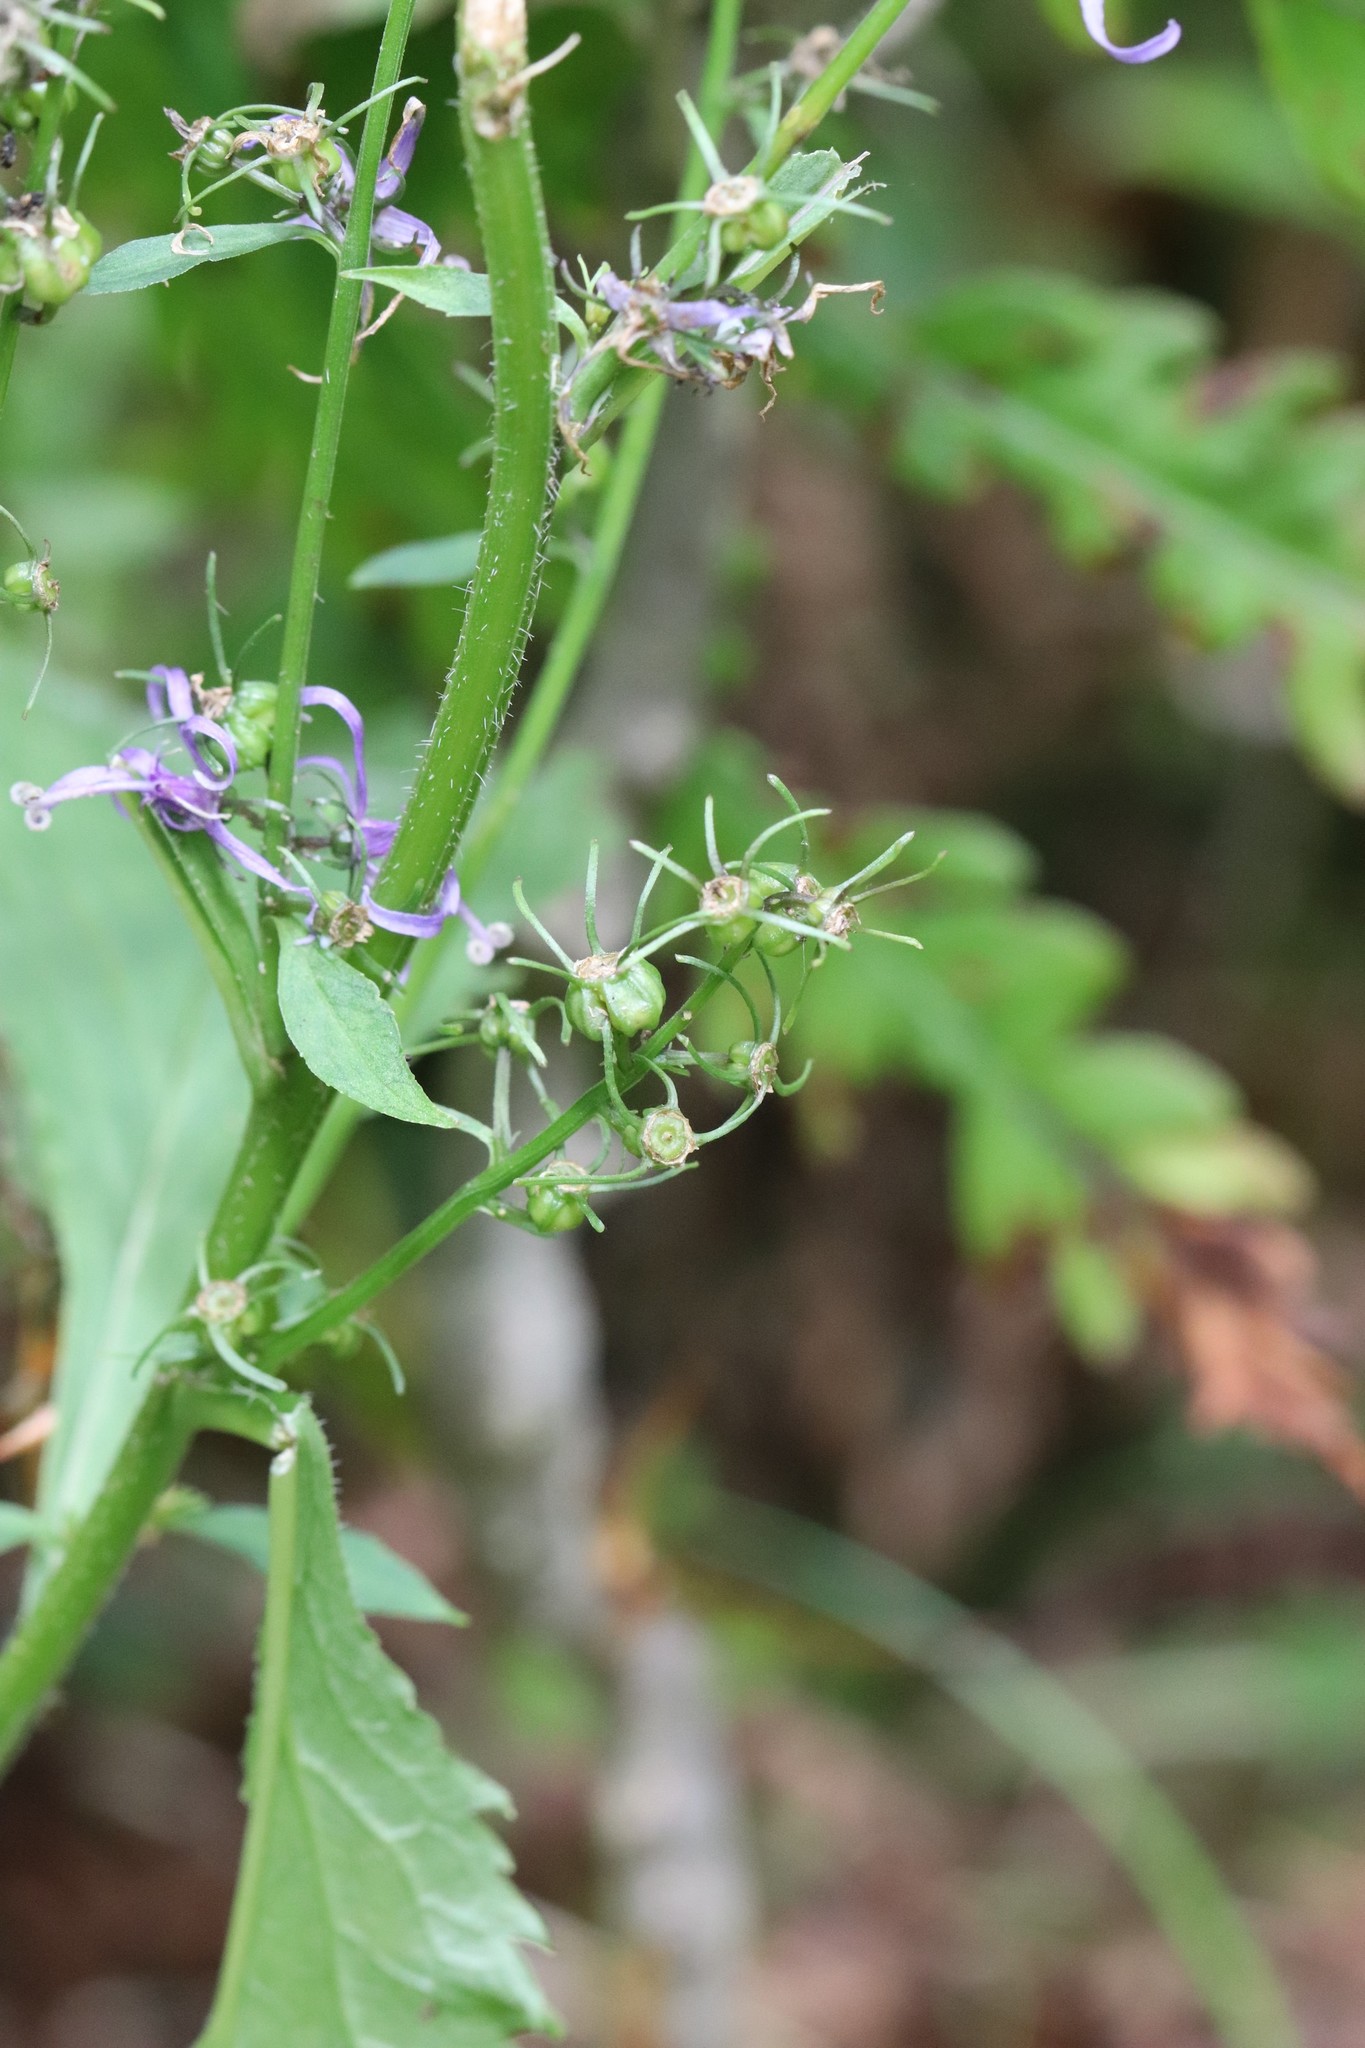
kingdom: Plantae
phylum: Tracheophyta
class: Magnoliopsida
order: Asterales
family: Campanulaceae
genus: Asyneuma
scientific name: Asyneuma japonicum
